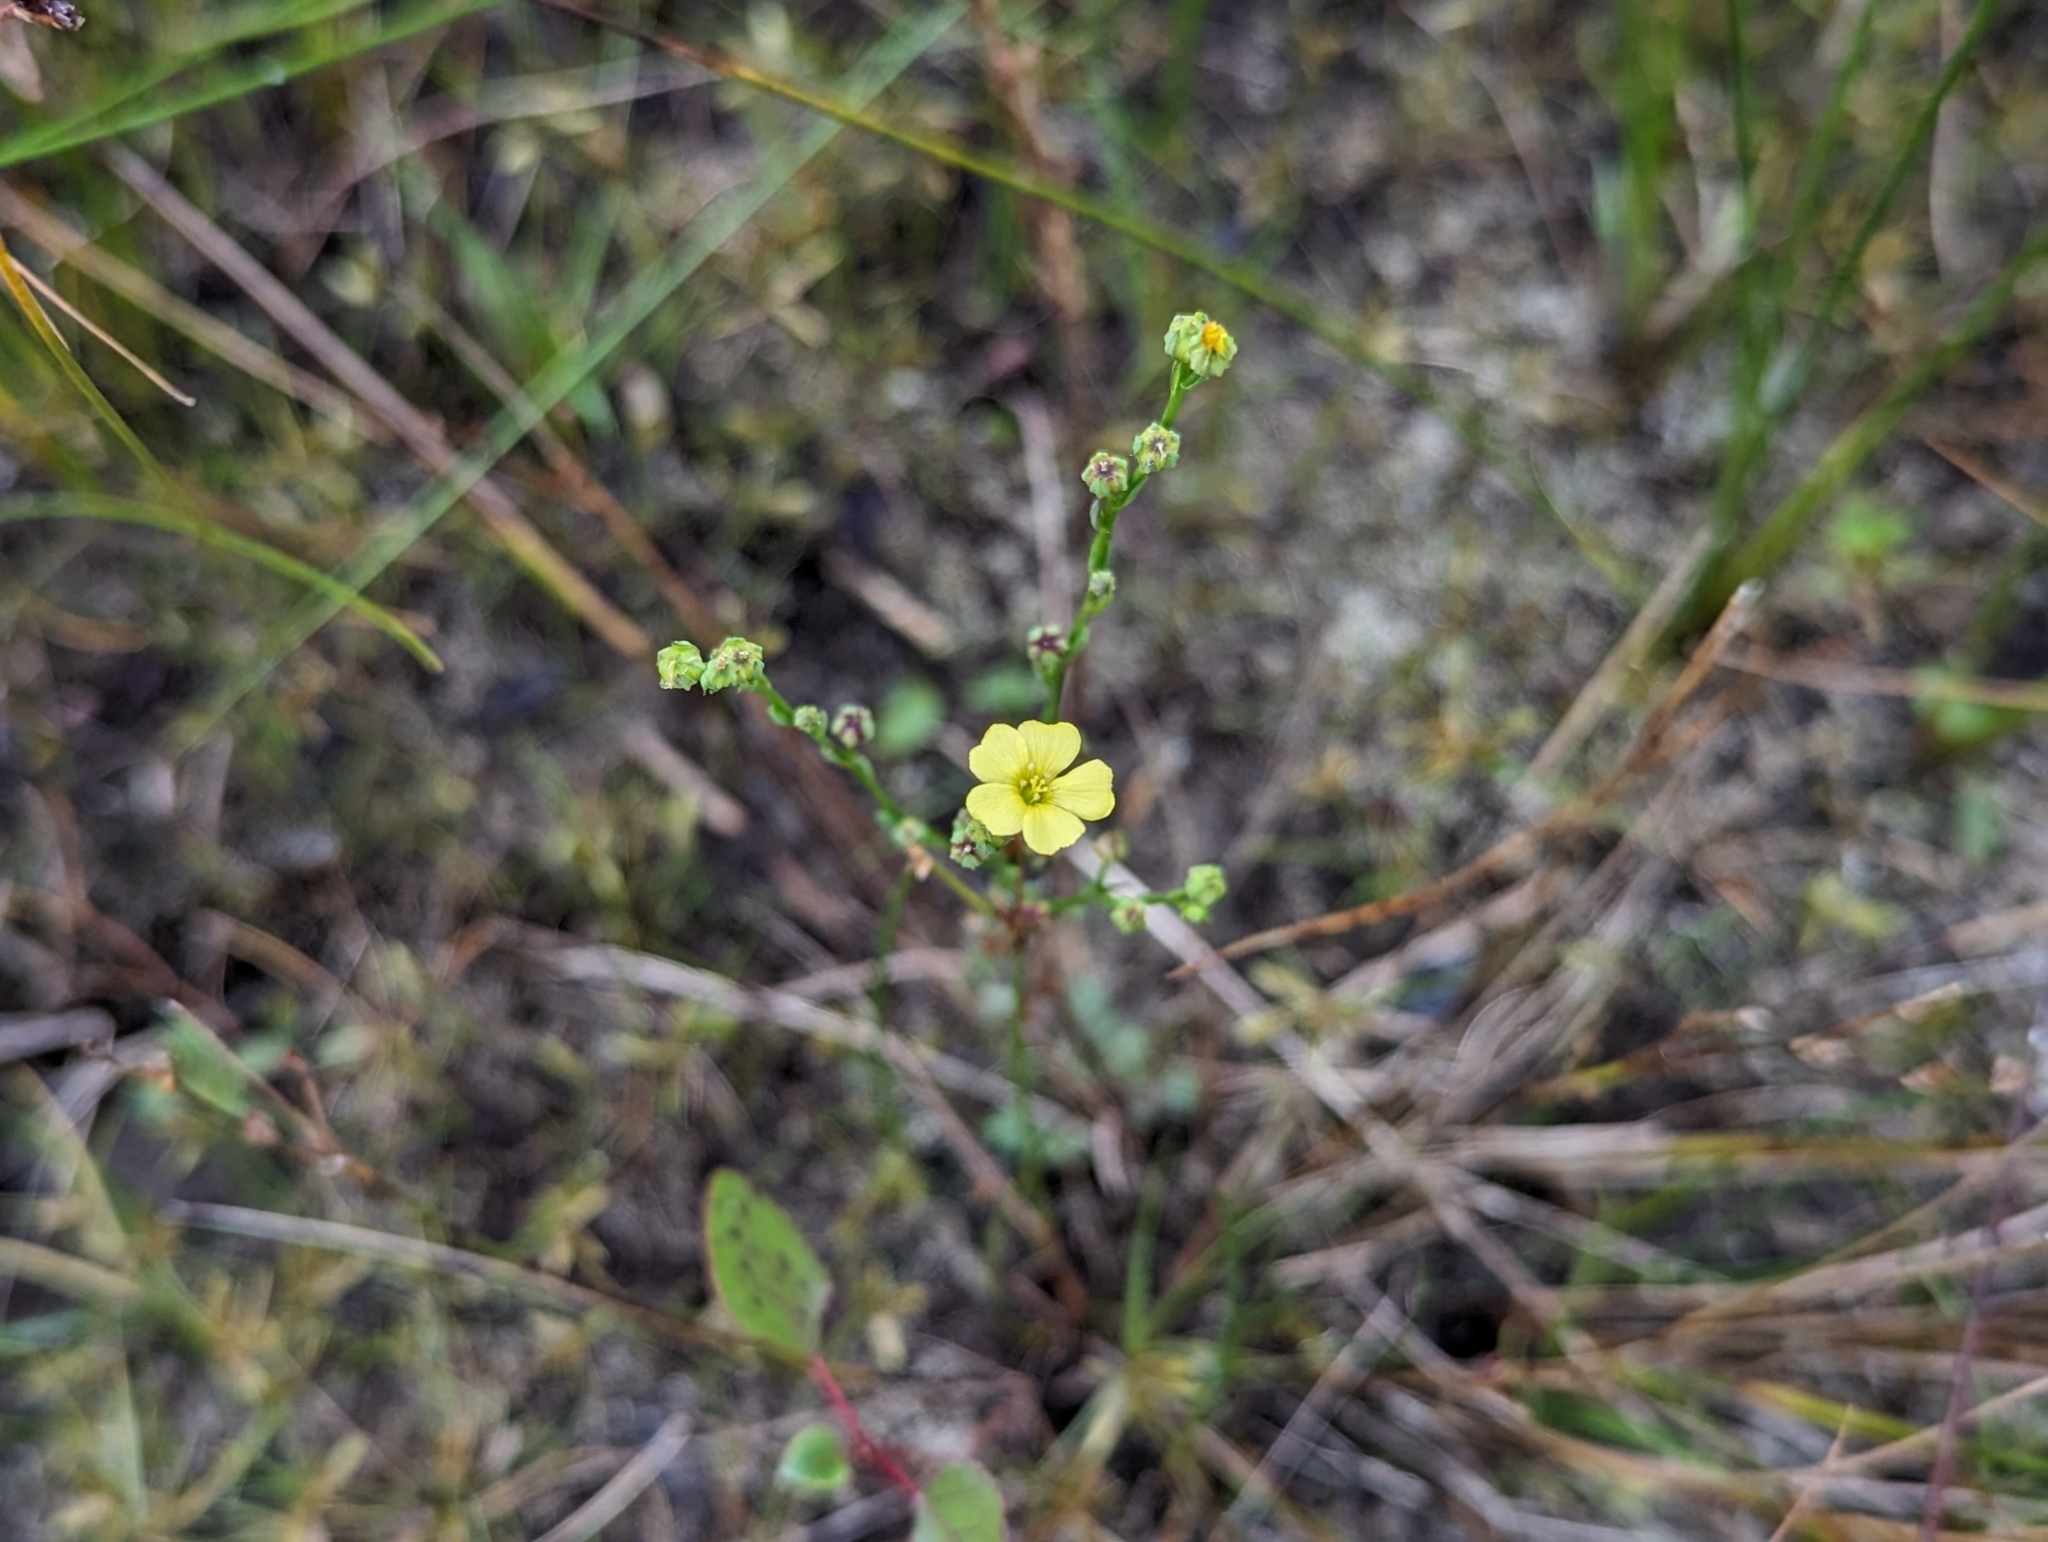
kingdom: Plantae
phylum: Tracheophyta
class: Magnoliopsida
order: Malpighiales
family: Linaceae
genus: Linum
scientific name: Linum medium
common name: Stiff yellow flax
